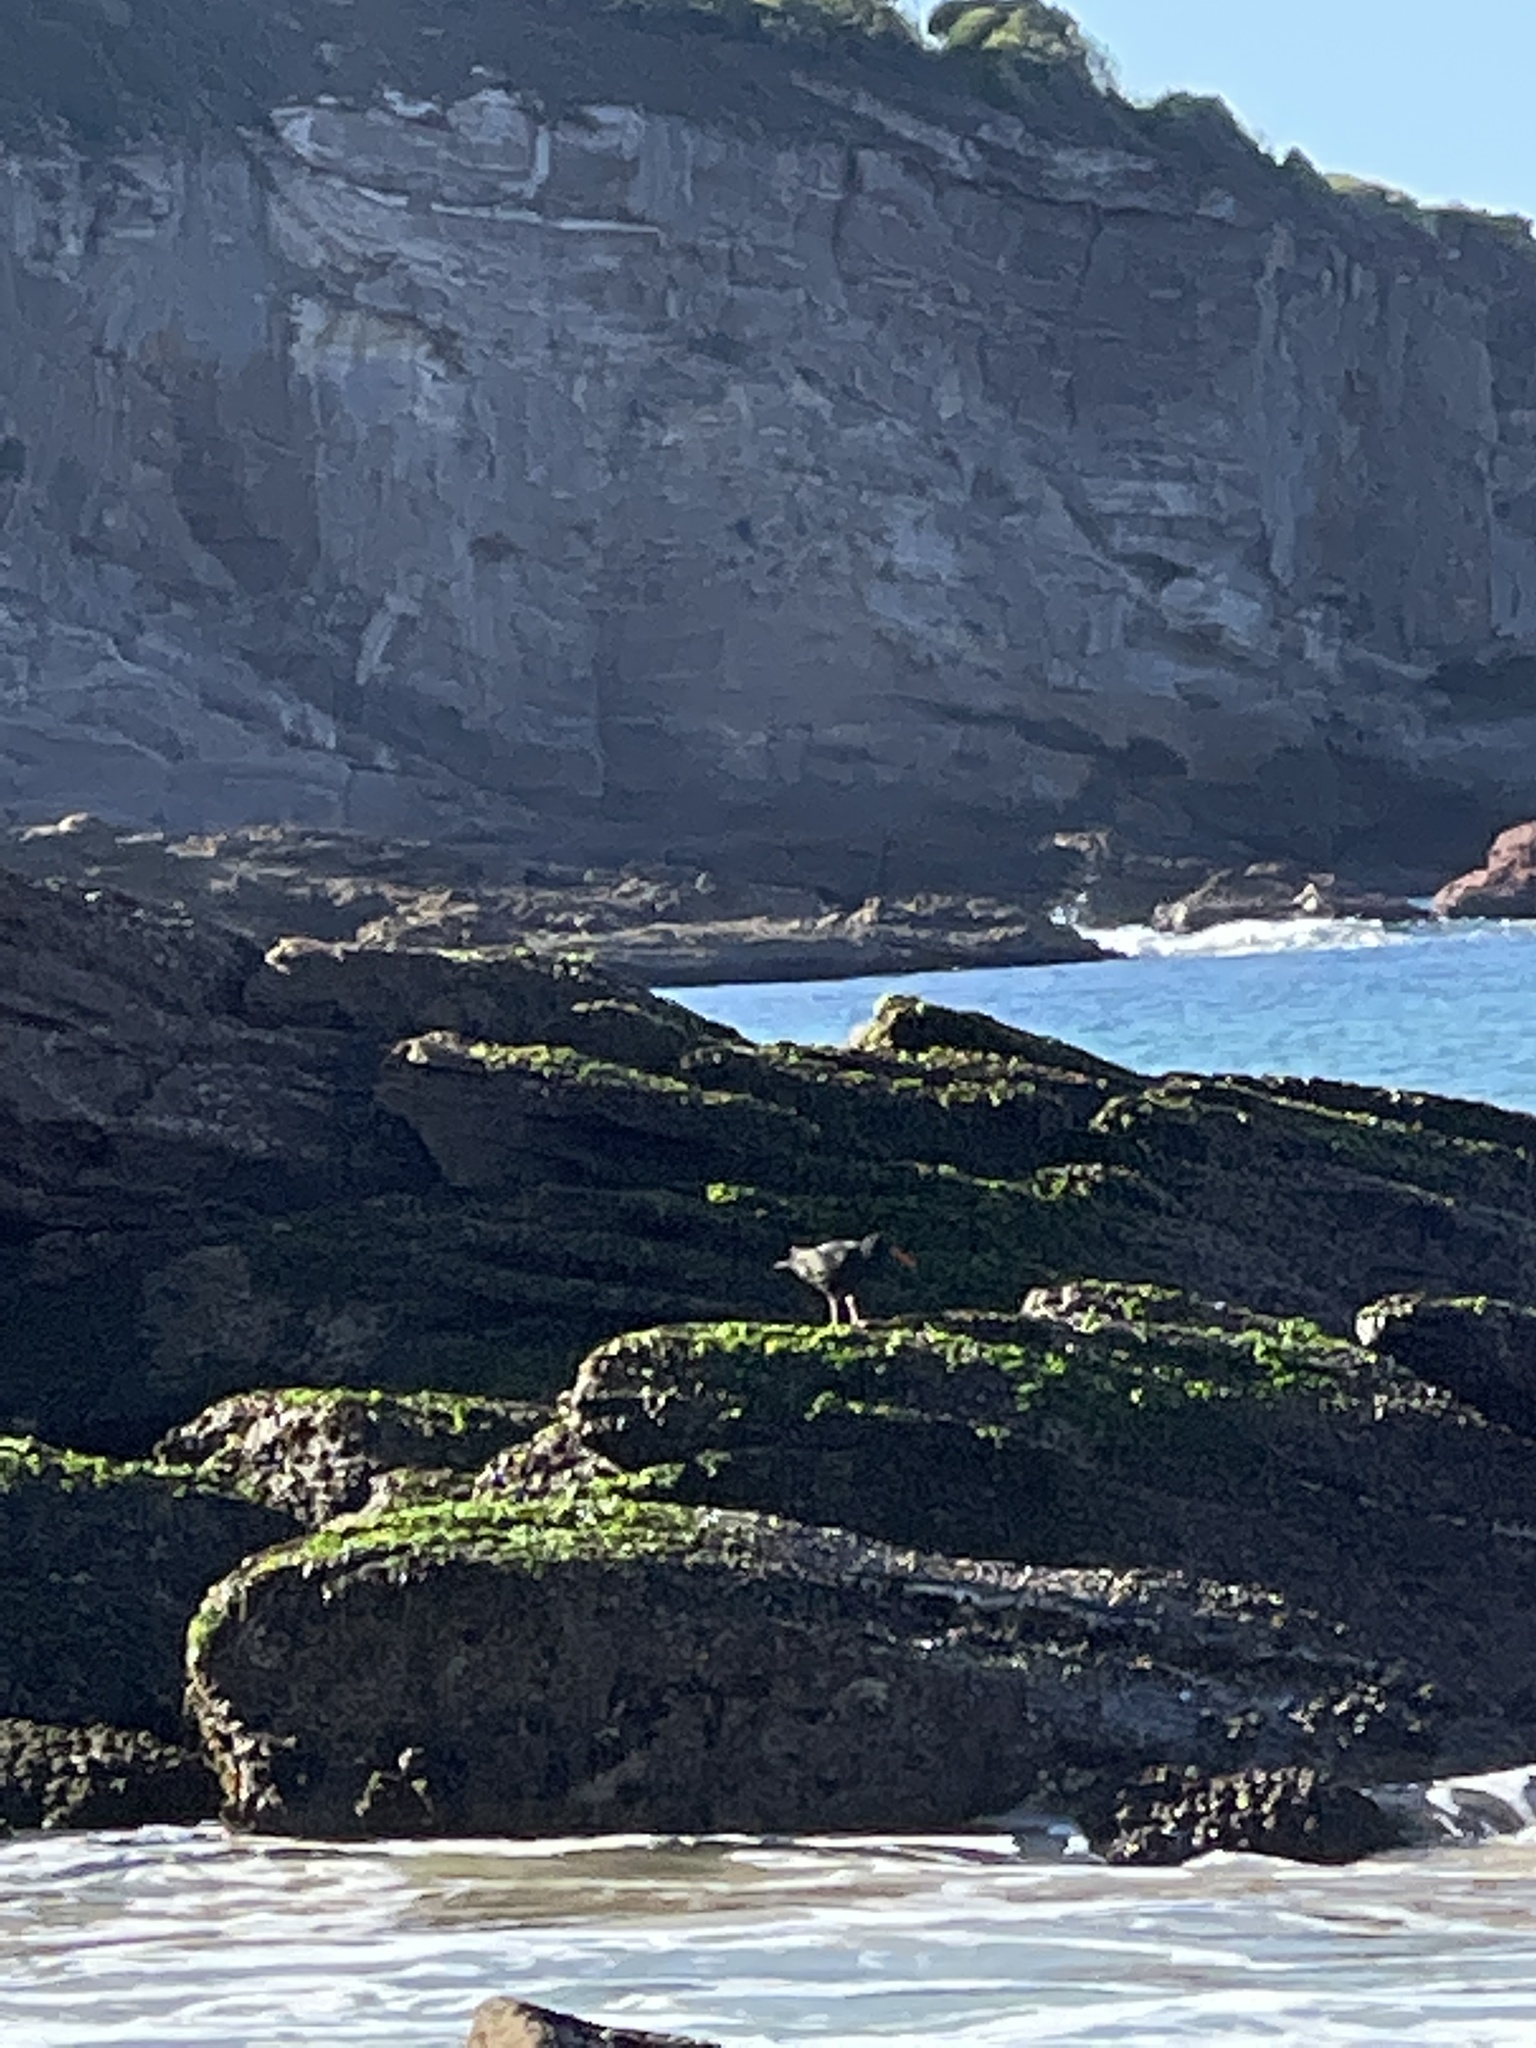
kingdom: Animalia
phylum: Chordata
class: Aves
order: Charadriiformes
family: Haematopodidae
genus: Haematopus
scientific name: Haematopus fuliginosus
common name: Sooty oystercatcher
